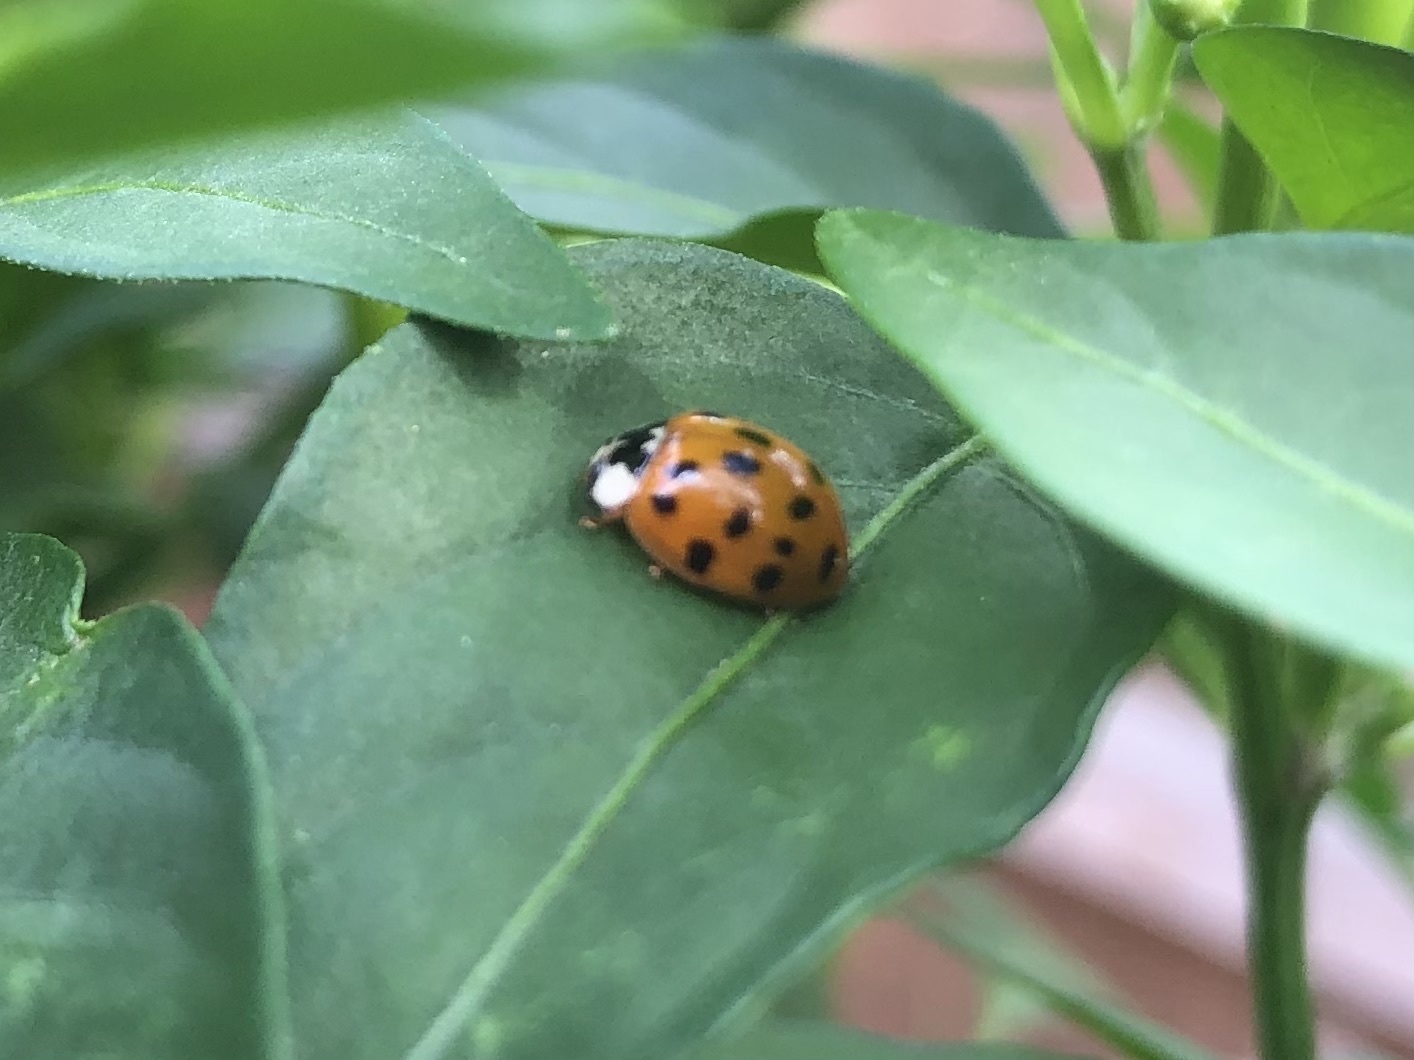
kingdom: Animalia
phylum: Arthropoda
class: Insecta
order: Coleoptera
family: Coccinellidae
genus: Harmonia
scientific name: Harmonia axyridis
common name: Harlequin ladybird
